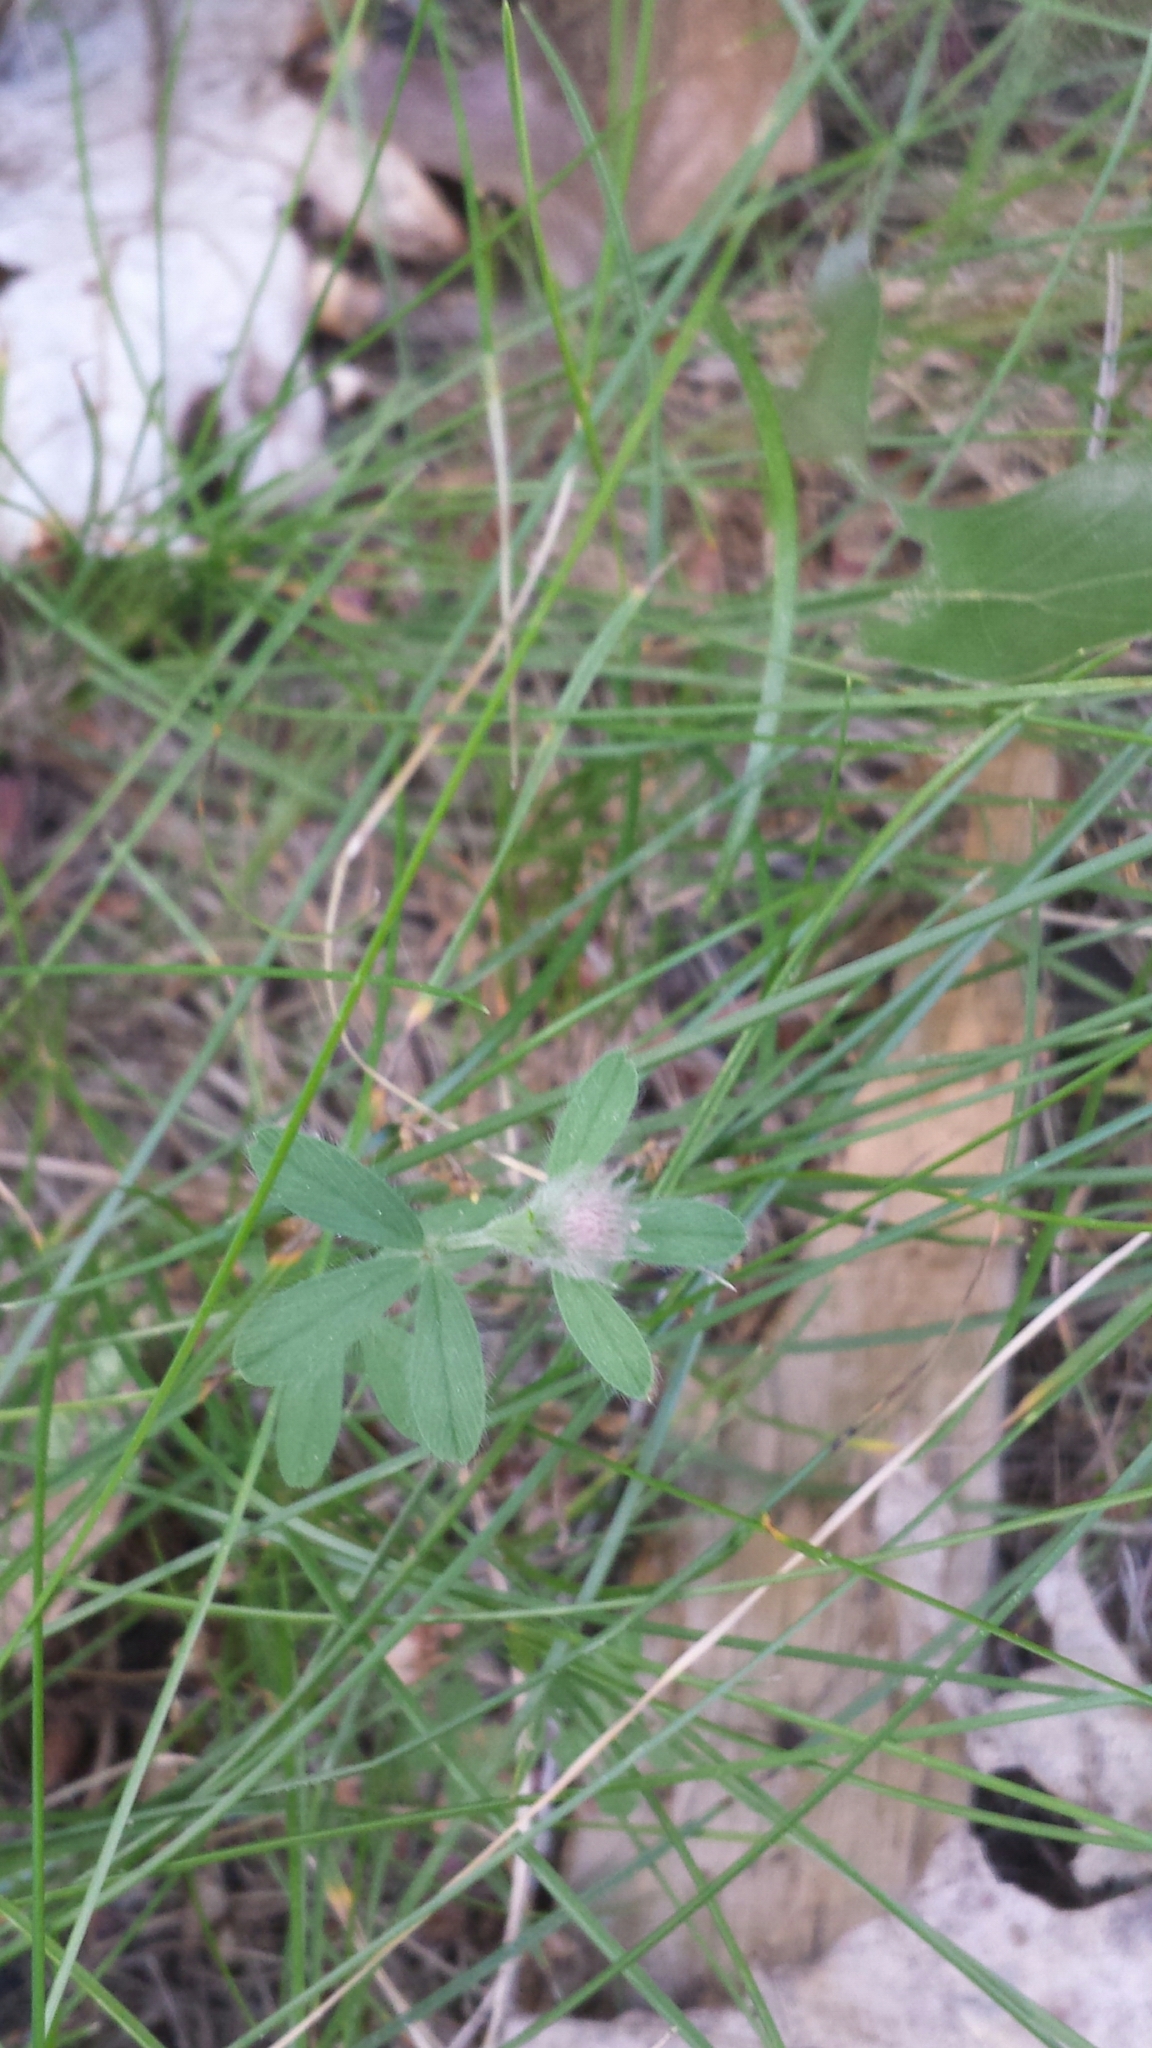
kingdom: Plantae
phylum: Tracheophyta
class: Magnoliopsida
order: Fabales
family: Fabaceae
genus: Trifolium
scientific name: Trifolium arvense
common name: Hare's-foot clover
